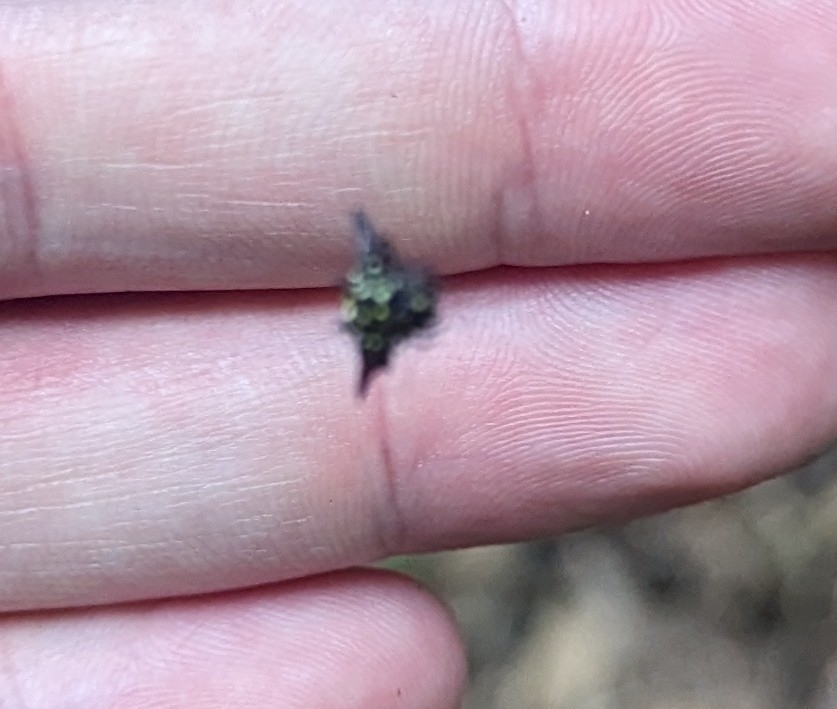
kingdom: Animalia
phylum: Arthropoda
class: Arachnida
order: Araneae
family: Araneidae
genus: Gasteracantha
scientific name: Gasteracantha fornicata
